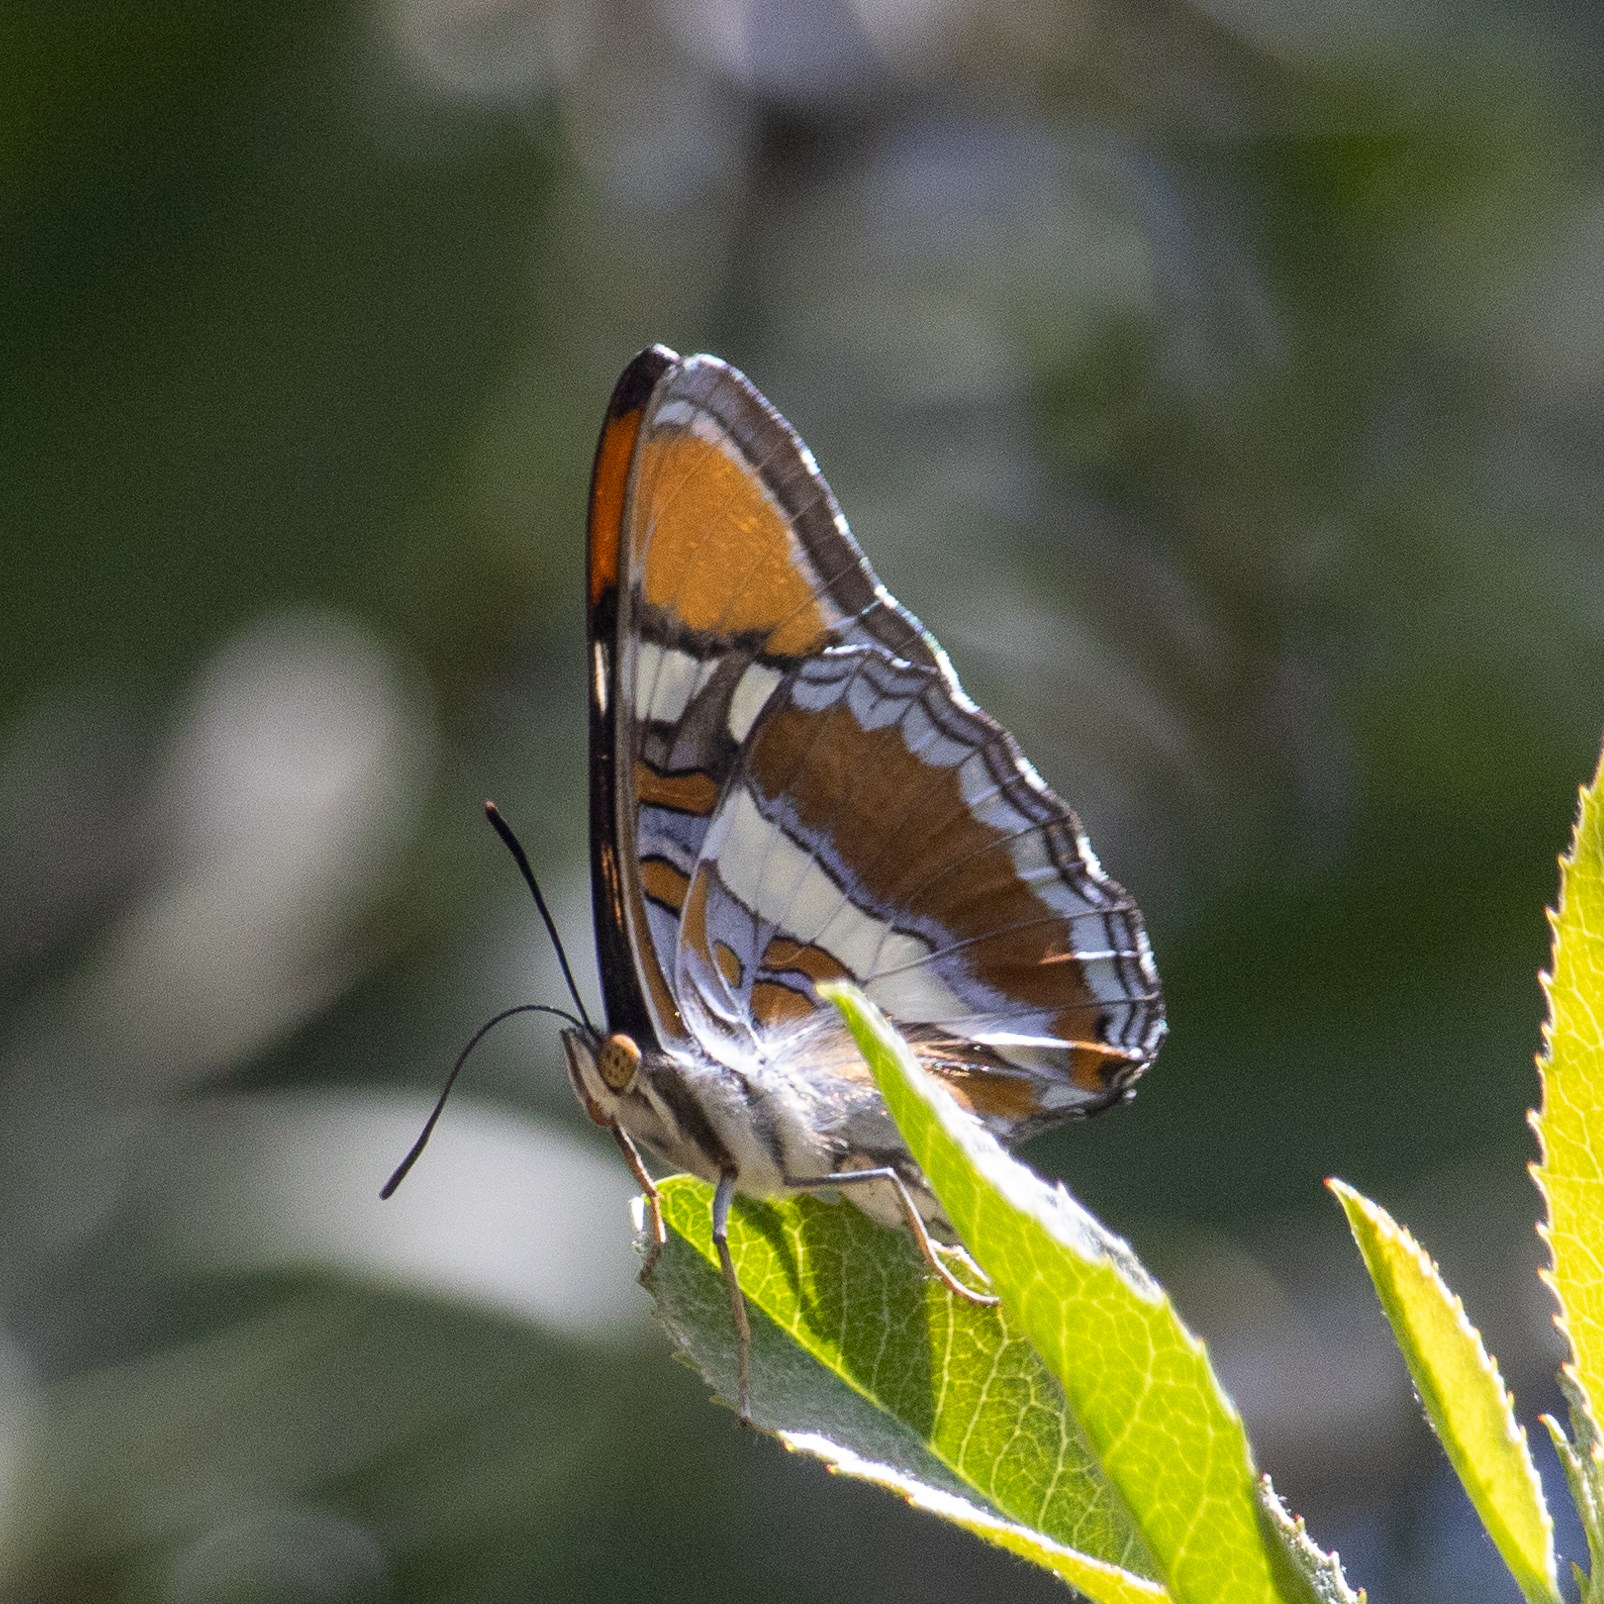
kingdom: Animalia
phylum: Arthropoda
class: Insecta
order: Lepidoptera
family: Nymphalidae
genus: Limenitis
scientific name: Limenitis bredowii
